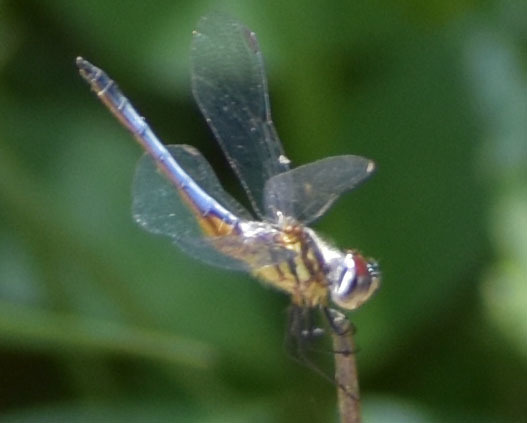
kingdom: Animalia
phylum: Arthropoda
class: Insecta
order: Odonata
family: Libellulidae
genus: Pachydiplax
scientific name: Pachydiplax longipennis
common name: Blue dasher
